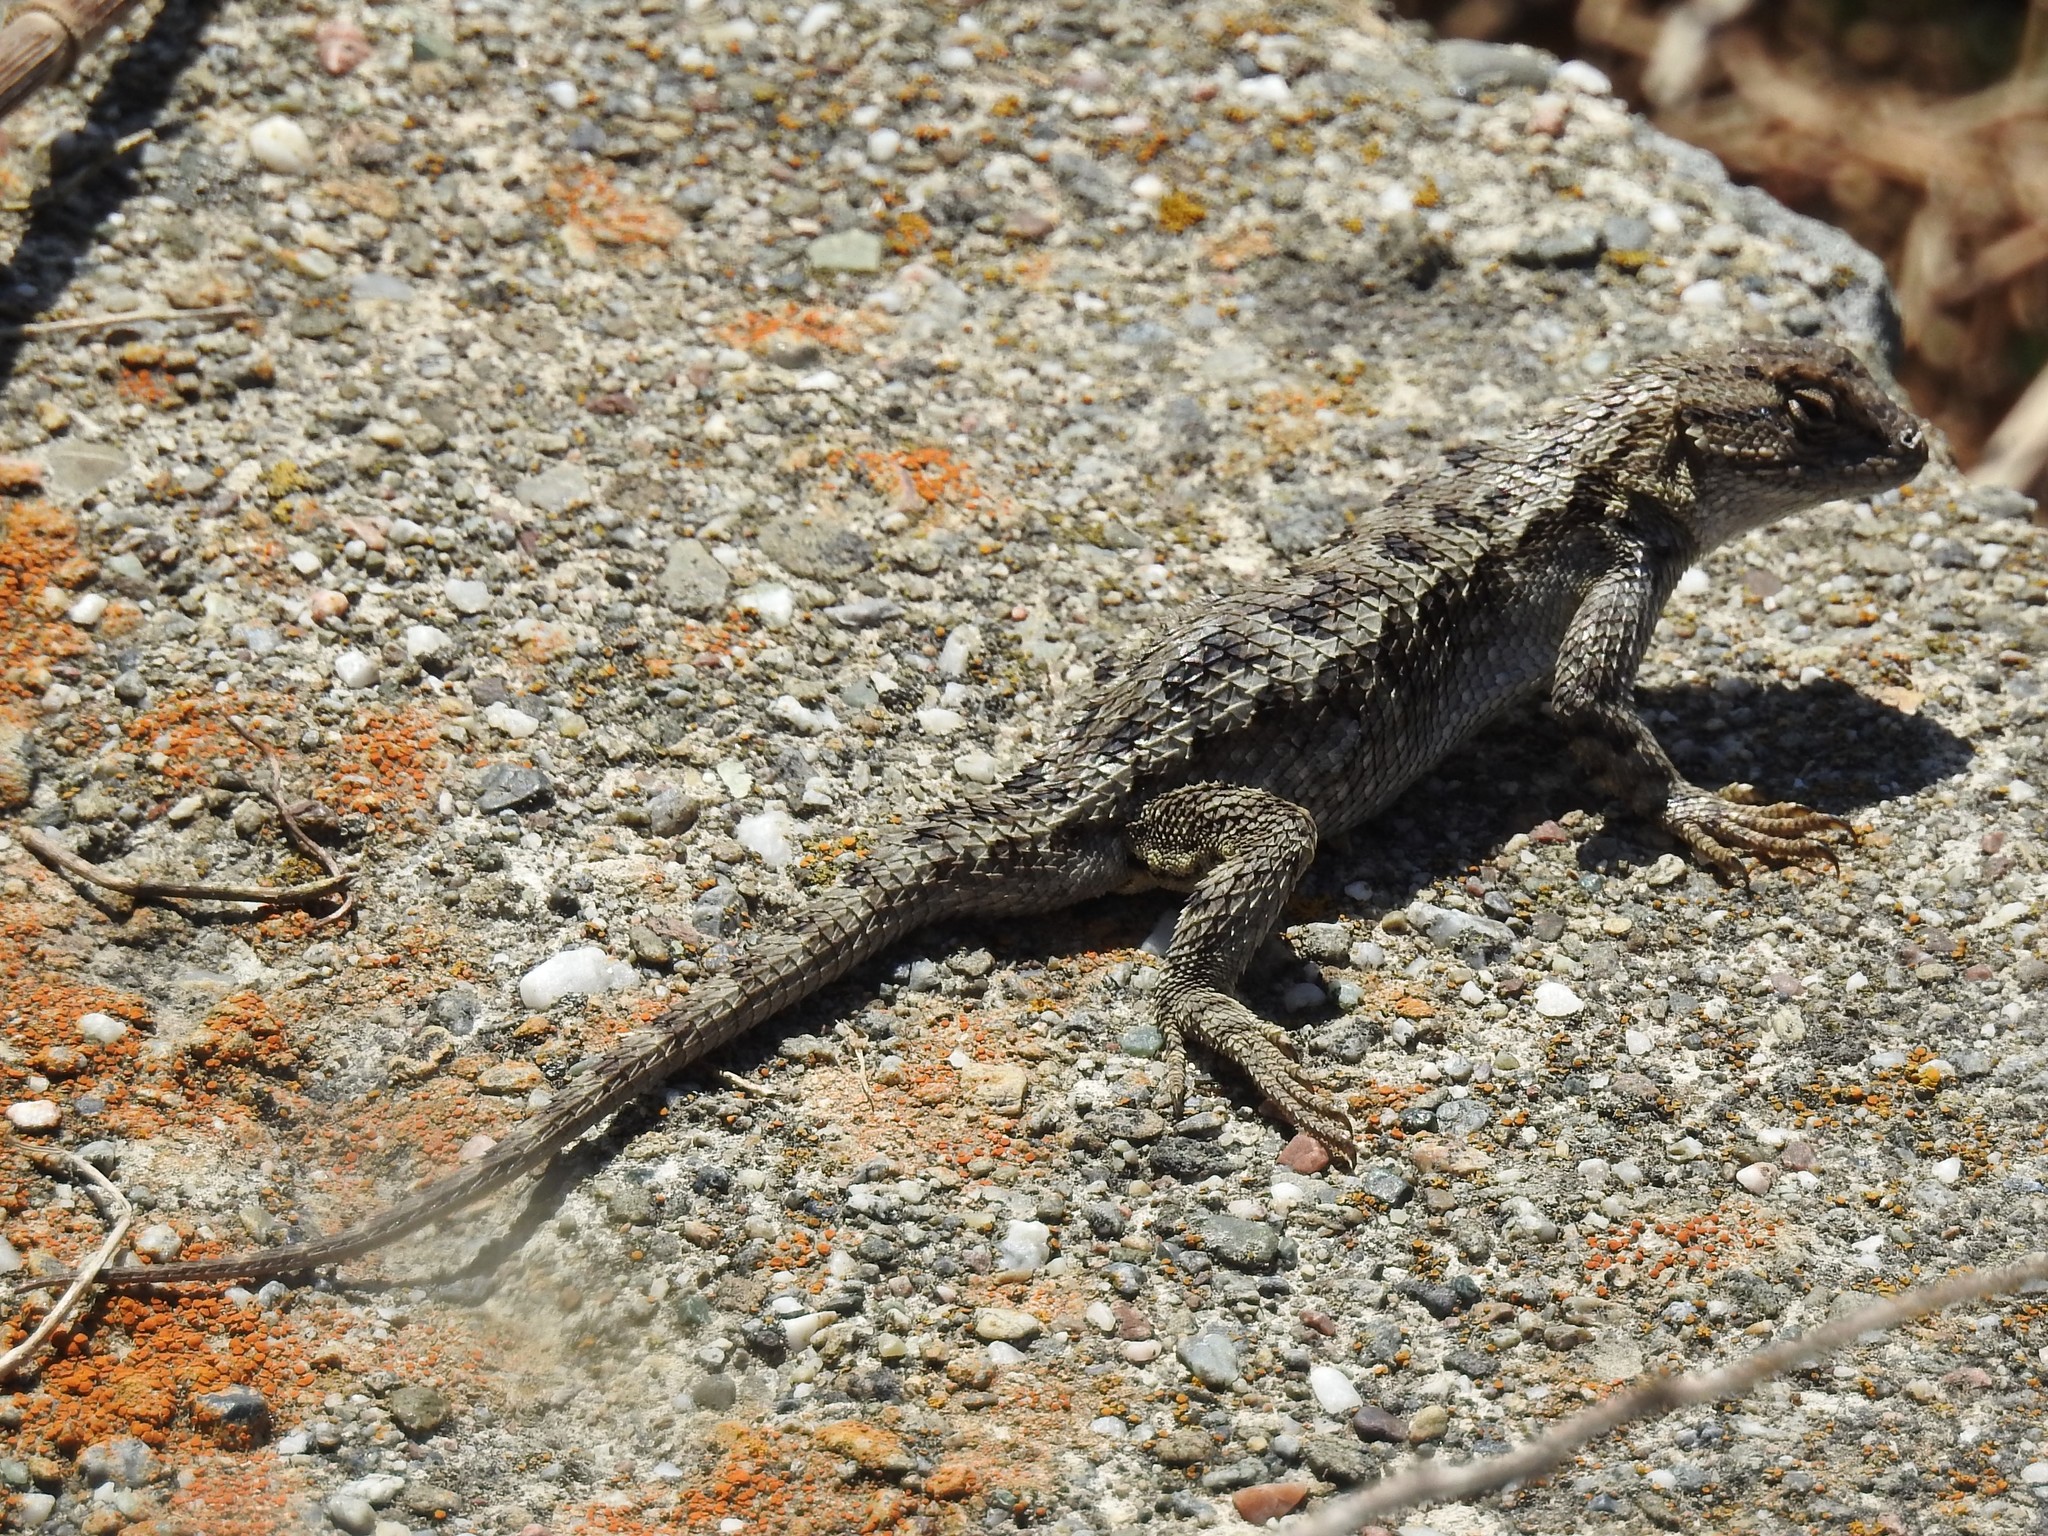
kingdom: Animalia
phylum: Chordata
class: Squamata
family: Phrynosomatidae
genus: Sceloporus
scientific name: Sceloporus occidentalis
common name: Western fence lizard
